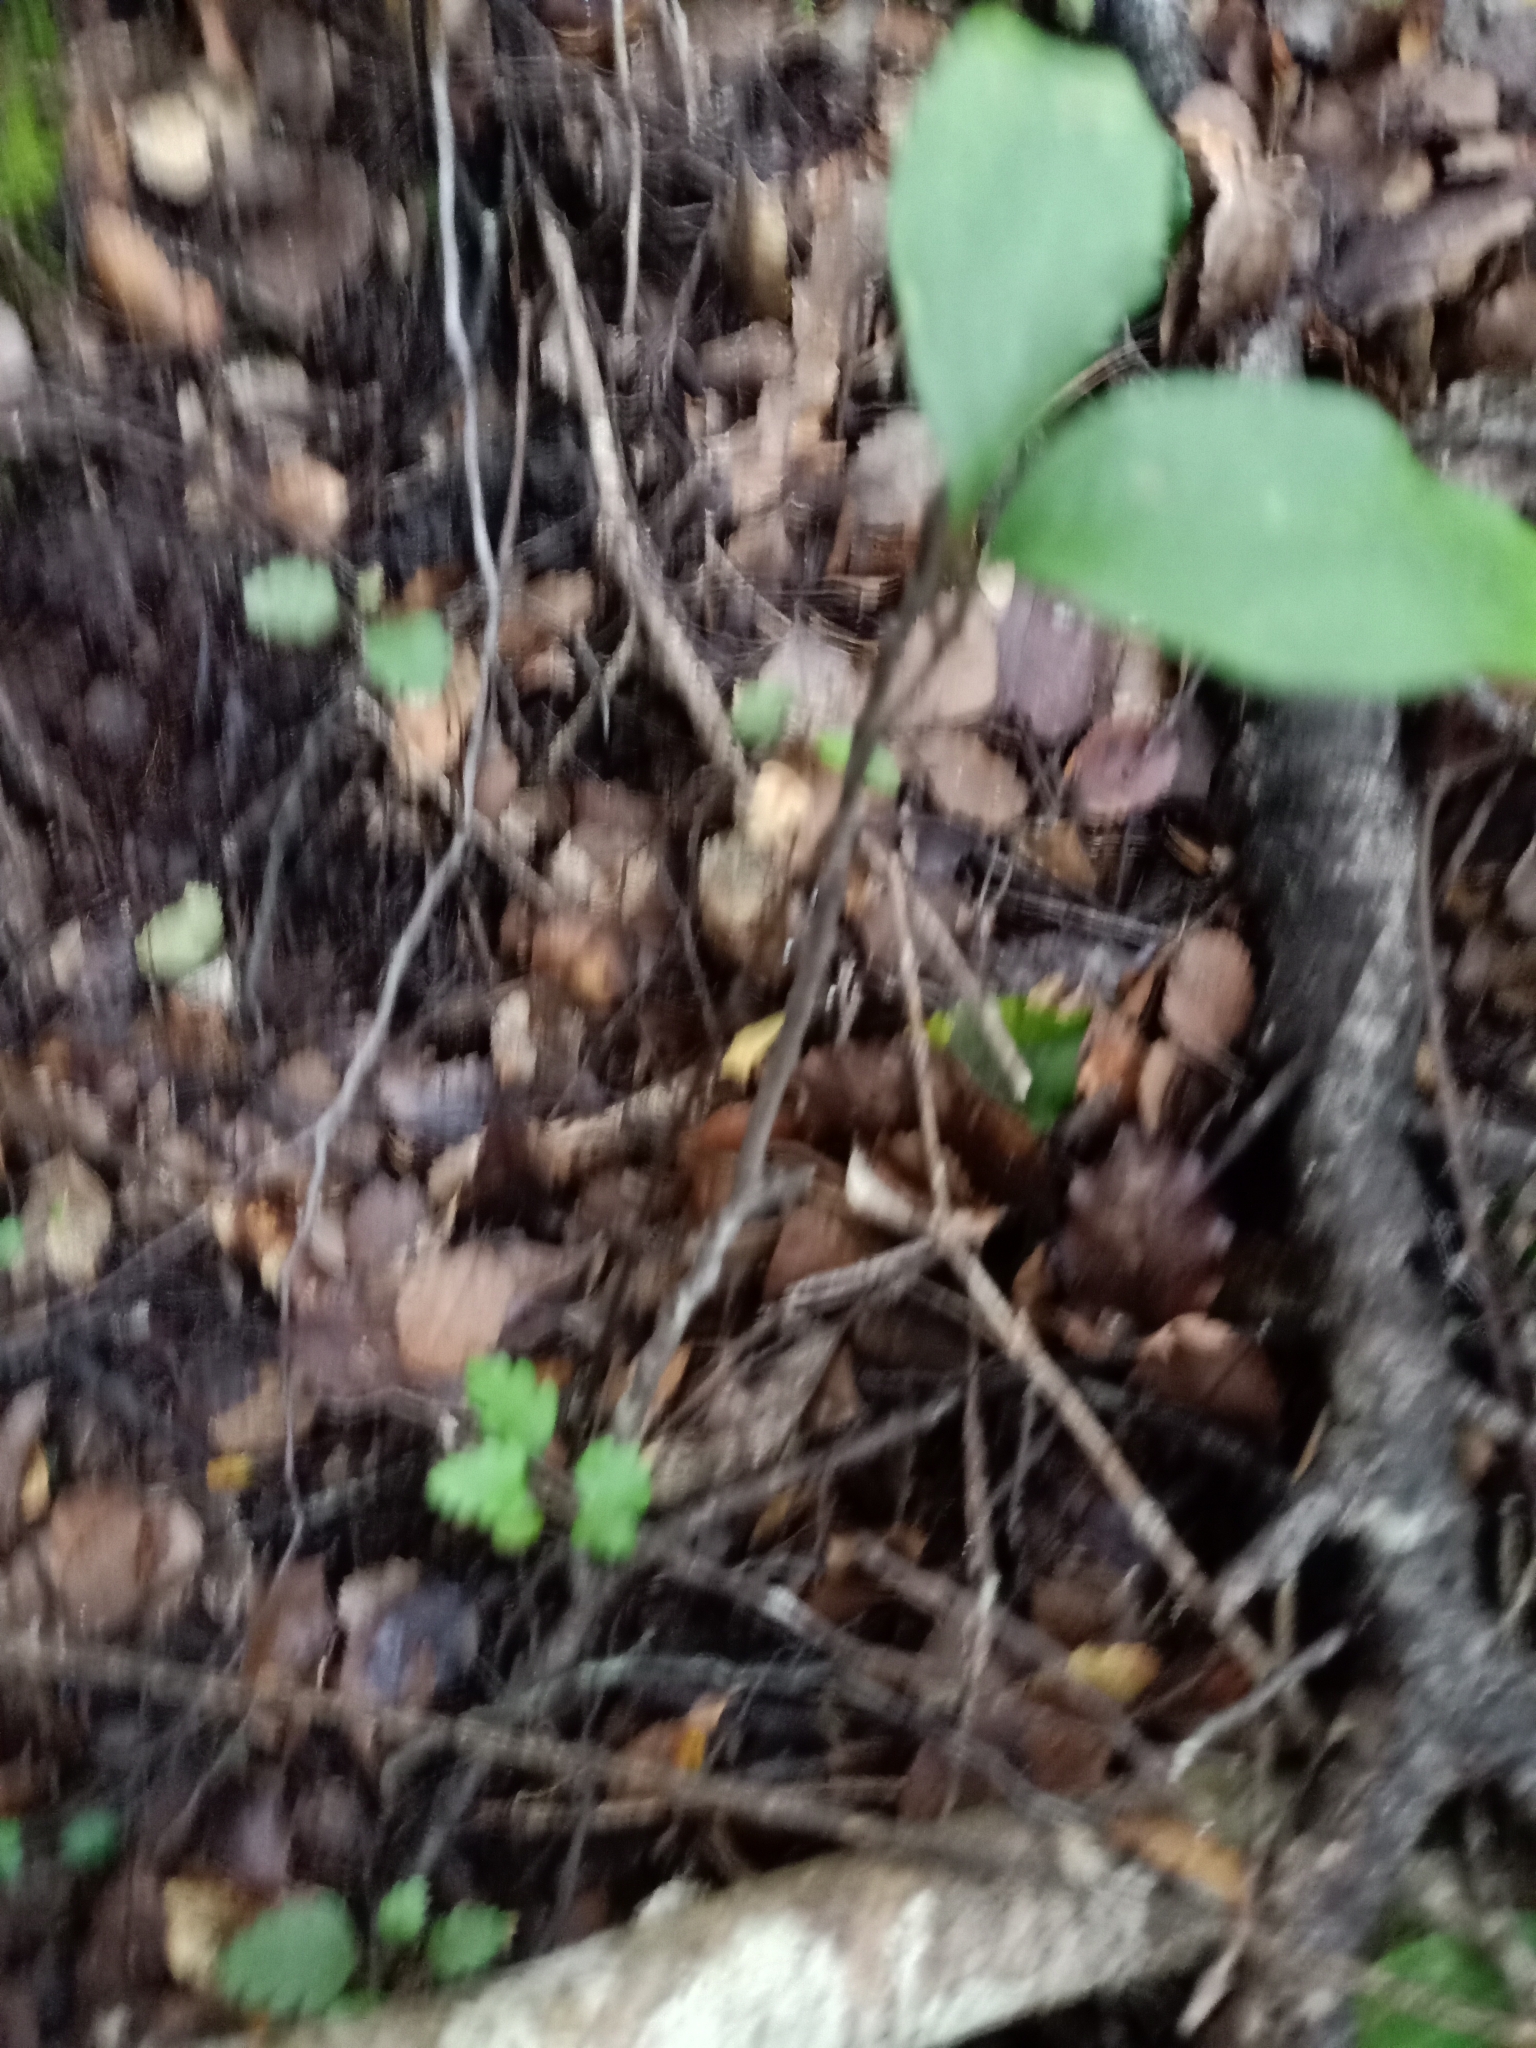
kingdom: Plantae
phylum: Tracheophyta
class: Liliopsida
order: Liliales
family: Ripogonaceae
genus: Ripogonum
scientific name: Ripogonum scandens
